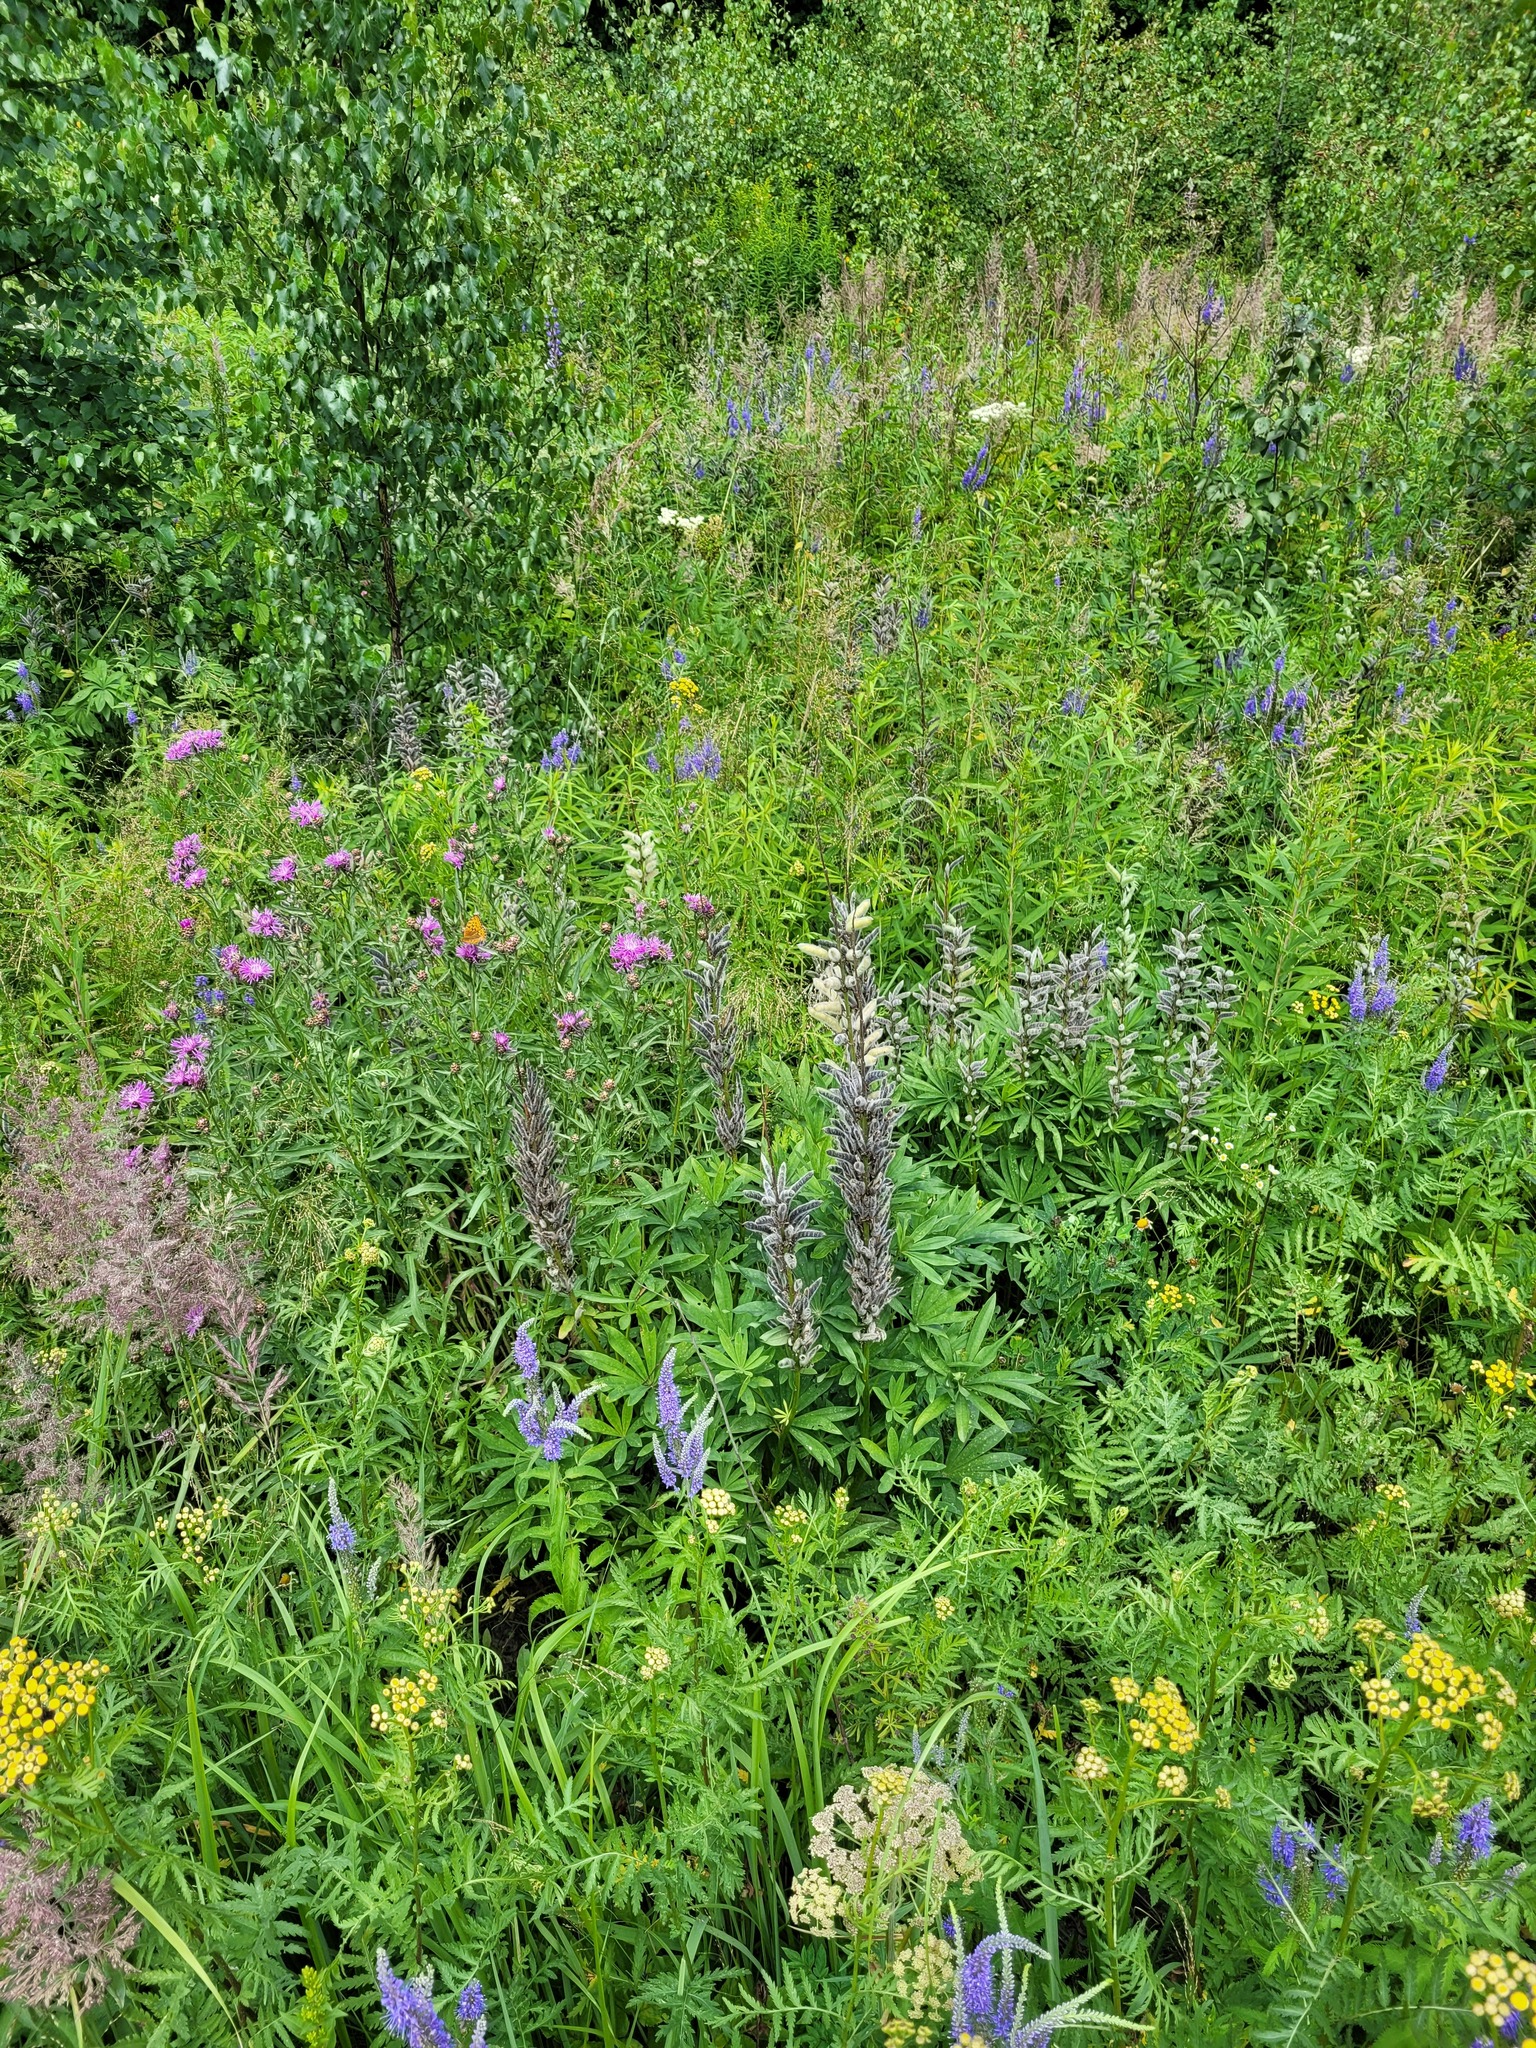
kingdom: Plantae
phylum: Tracheophyta
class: Magnoliopsida
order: Fabales
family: Fabaceae
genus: Lupinus
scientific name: Lupinus polyphyllus
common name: Garden lupin
